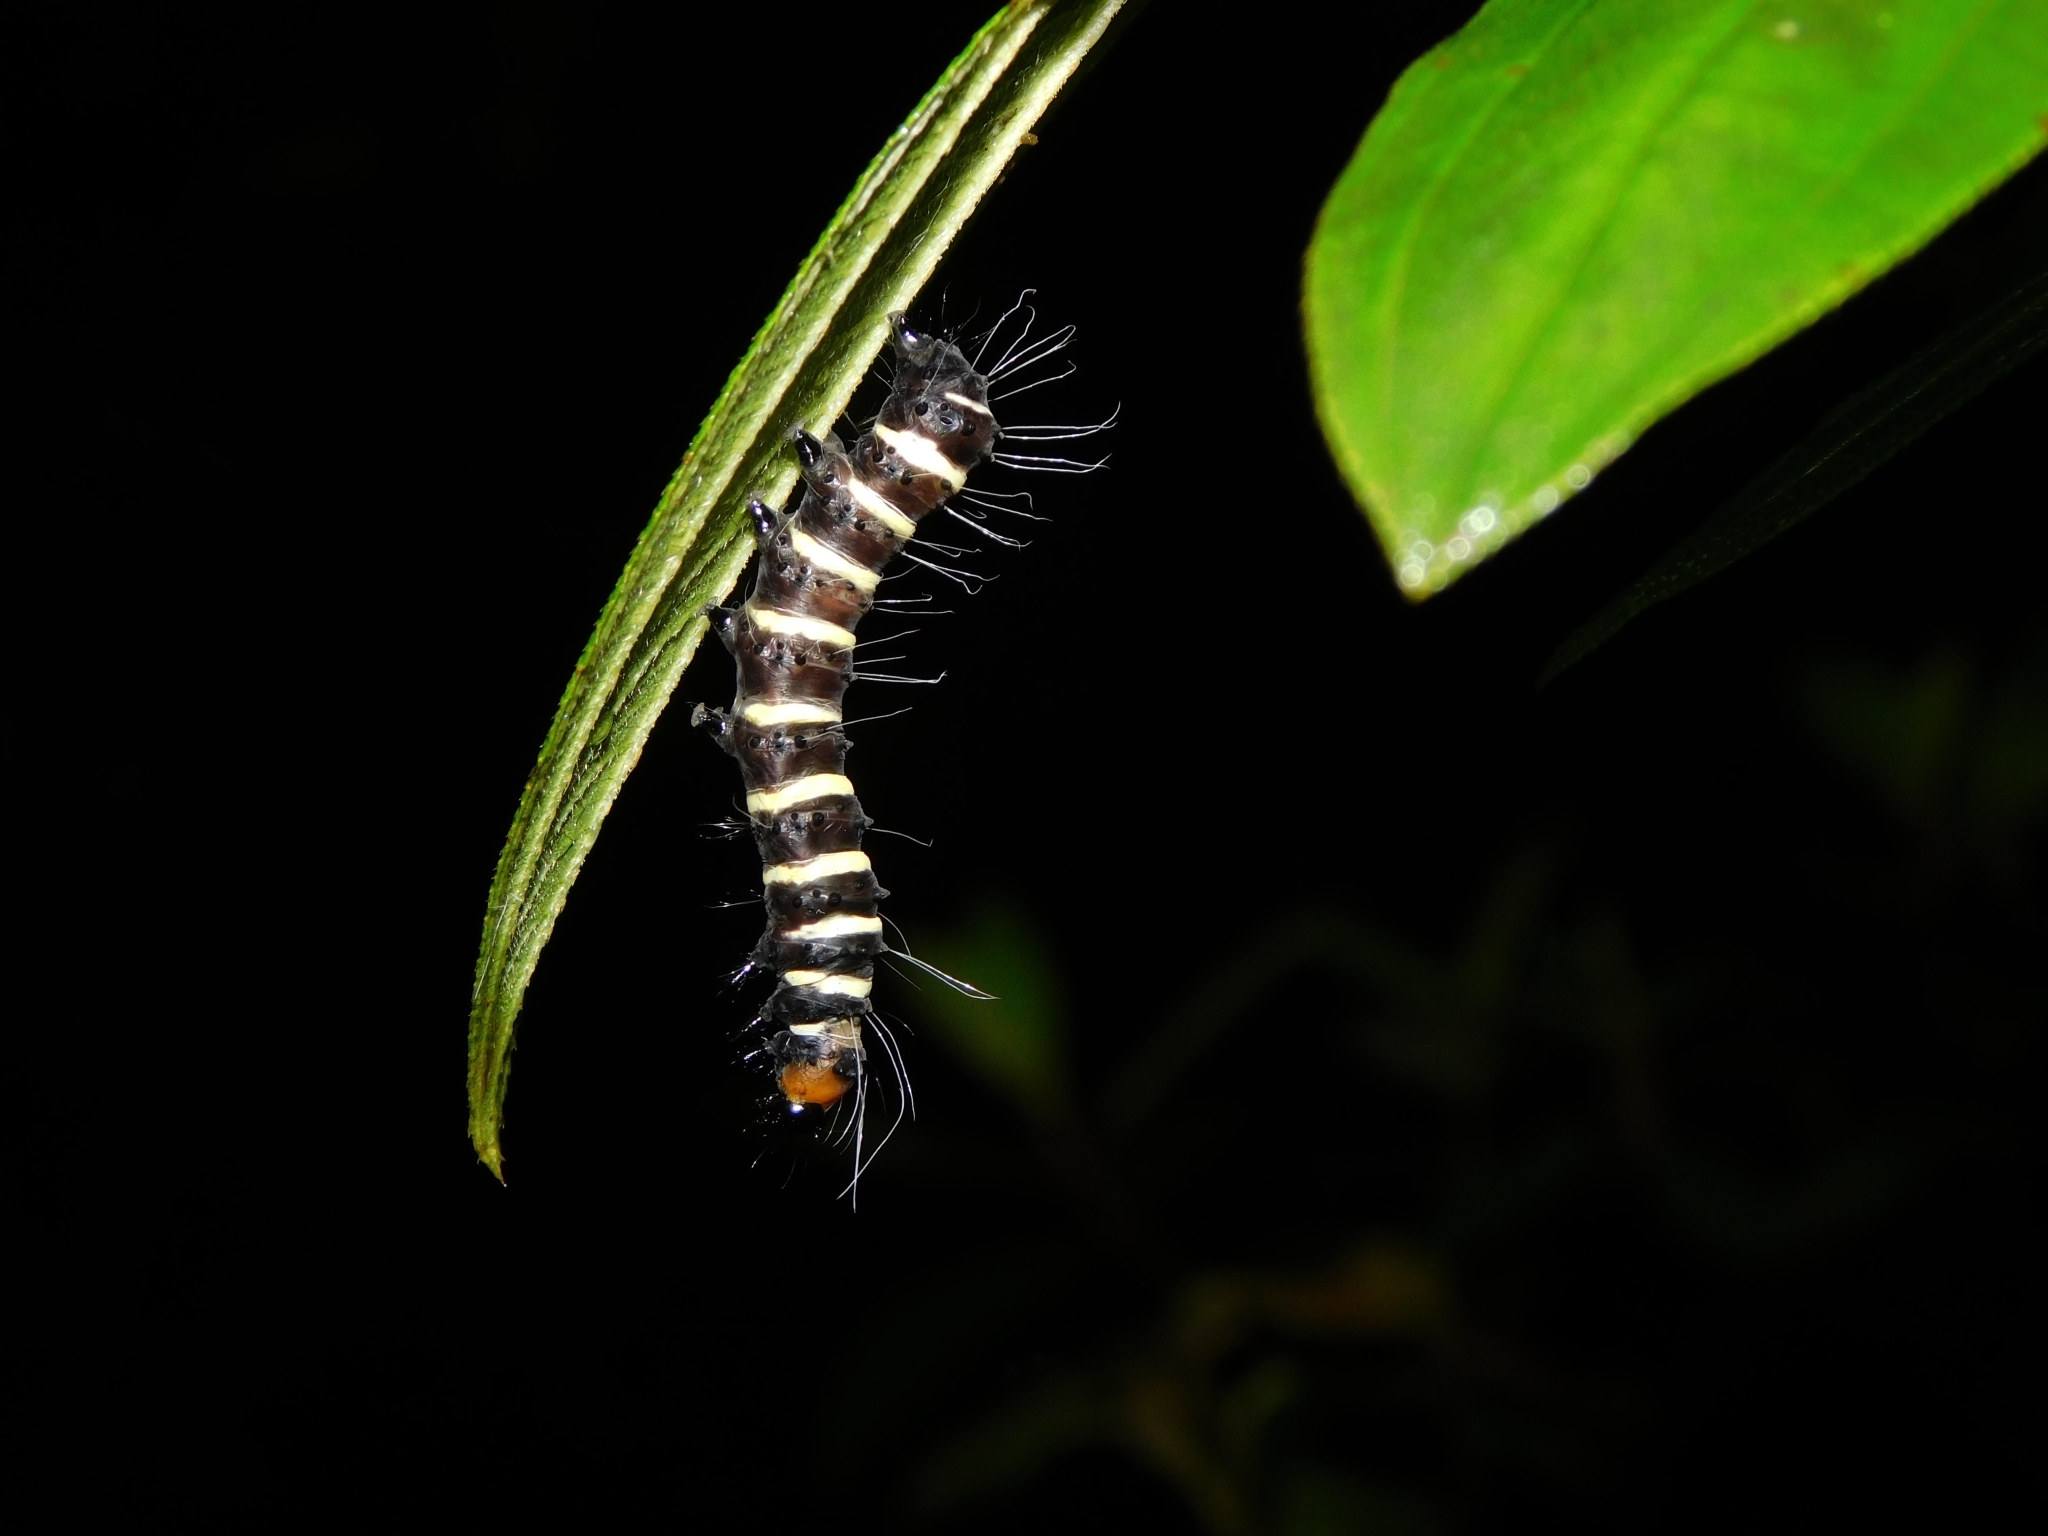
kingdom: Animalia
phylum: Arthropoda
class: Insecta
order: Lepidoptera
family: Noctuidae
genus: Episteme
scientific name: Episteme latimargo
